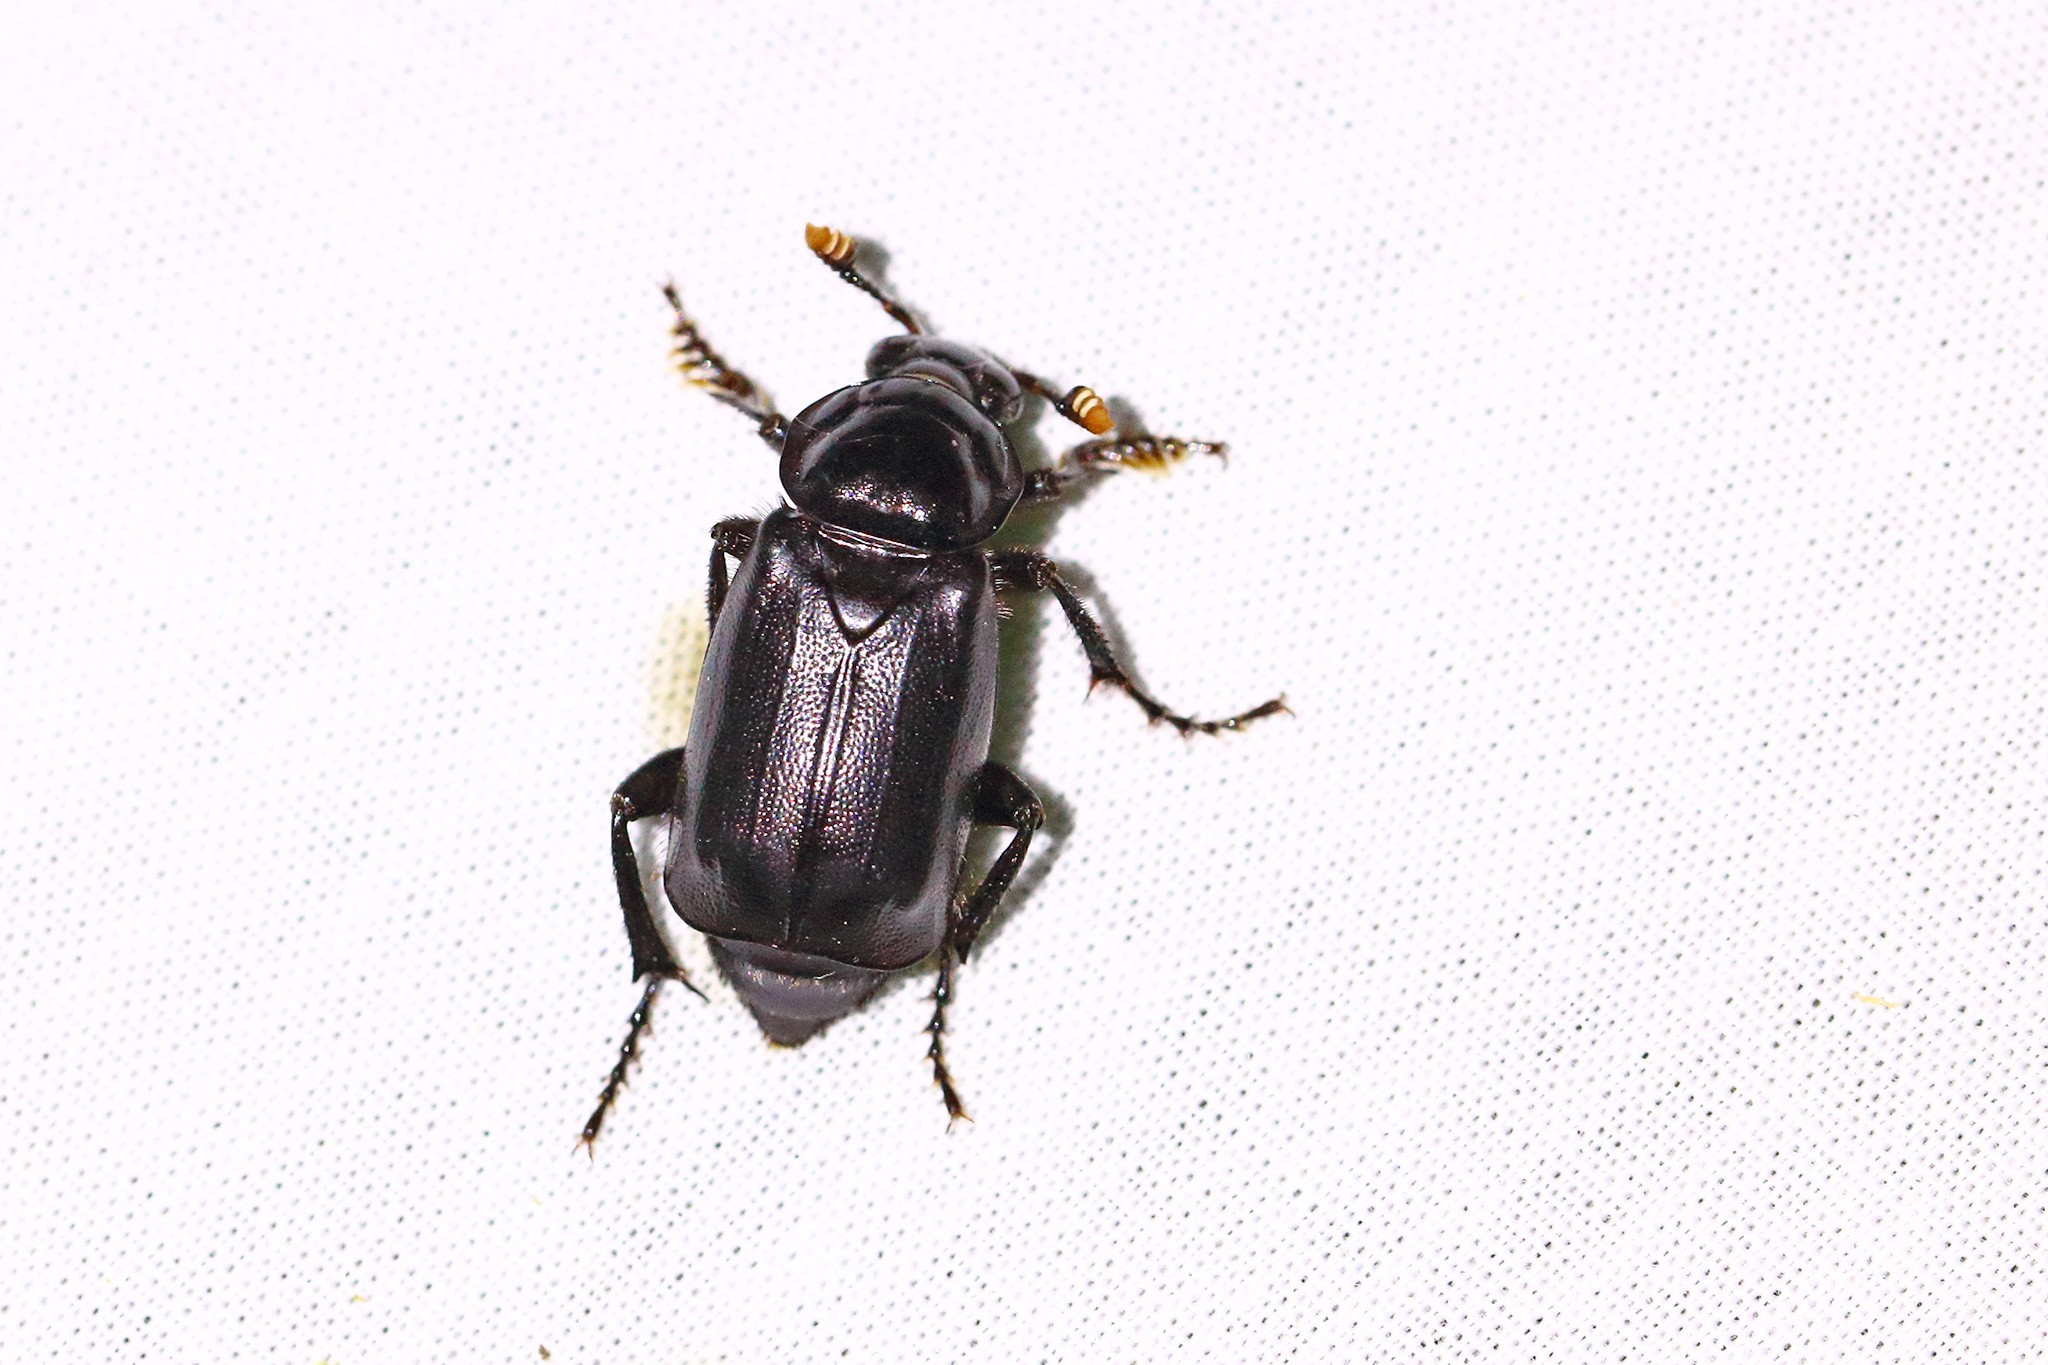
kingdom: Animalia
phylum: Arthropoda
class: Insecta
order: Coleoptera
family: Staphylinidae
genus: Nicrophorus
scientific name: Nicrophorus humator
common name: Black sexton beetle
